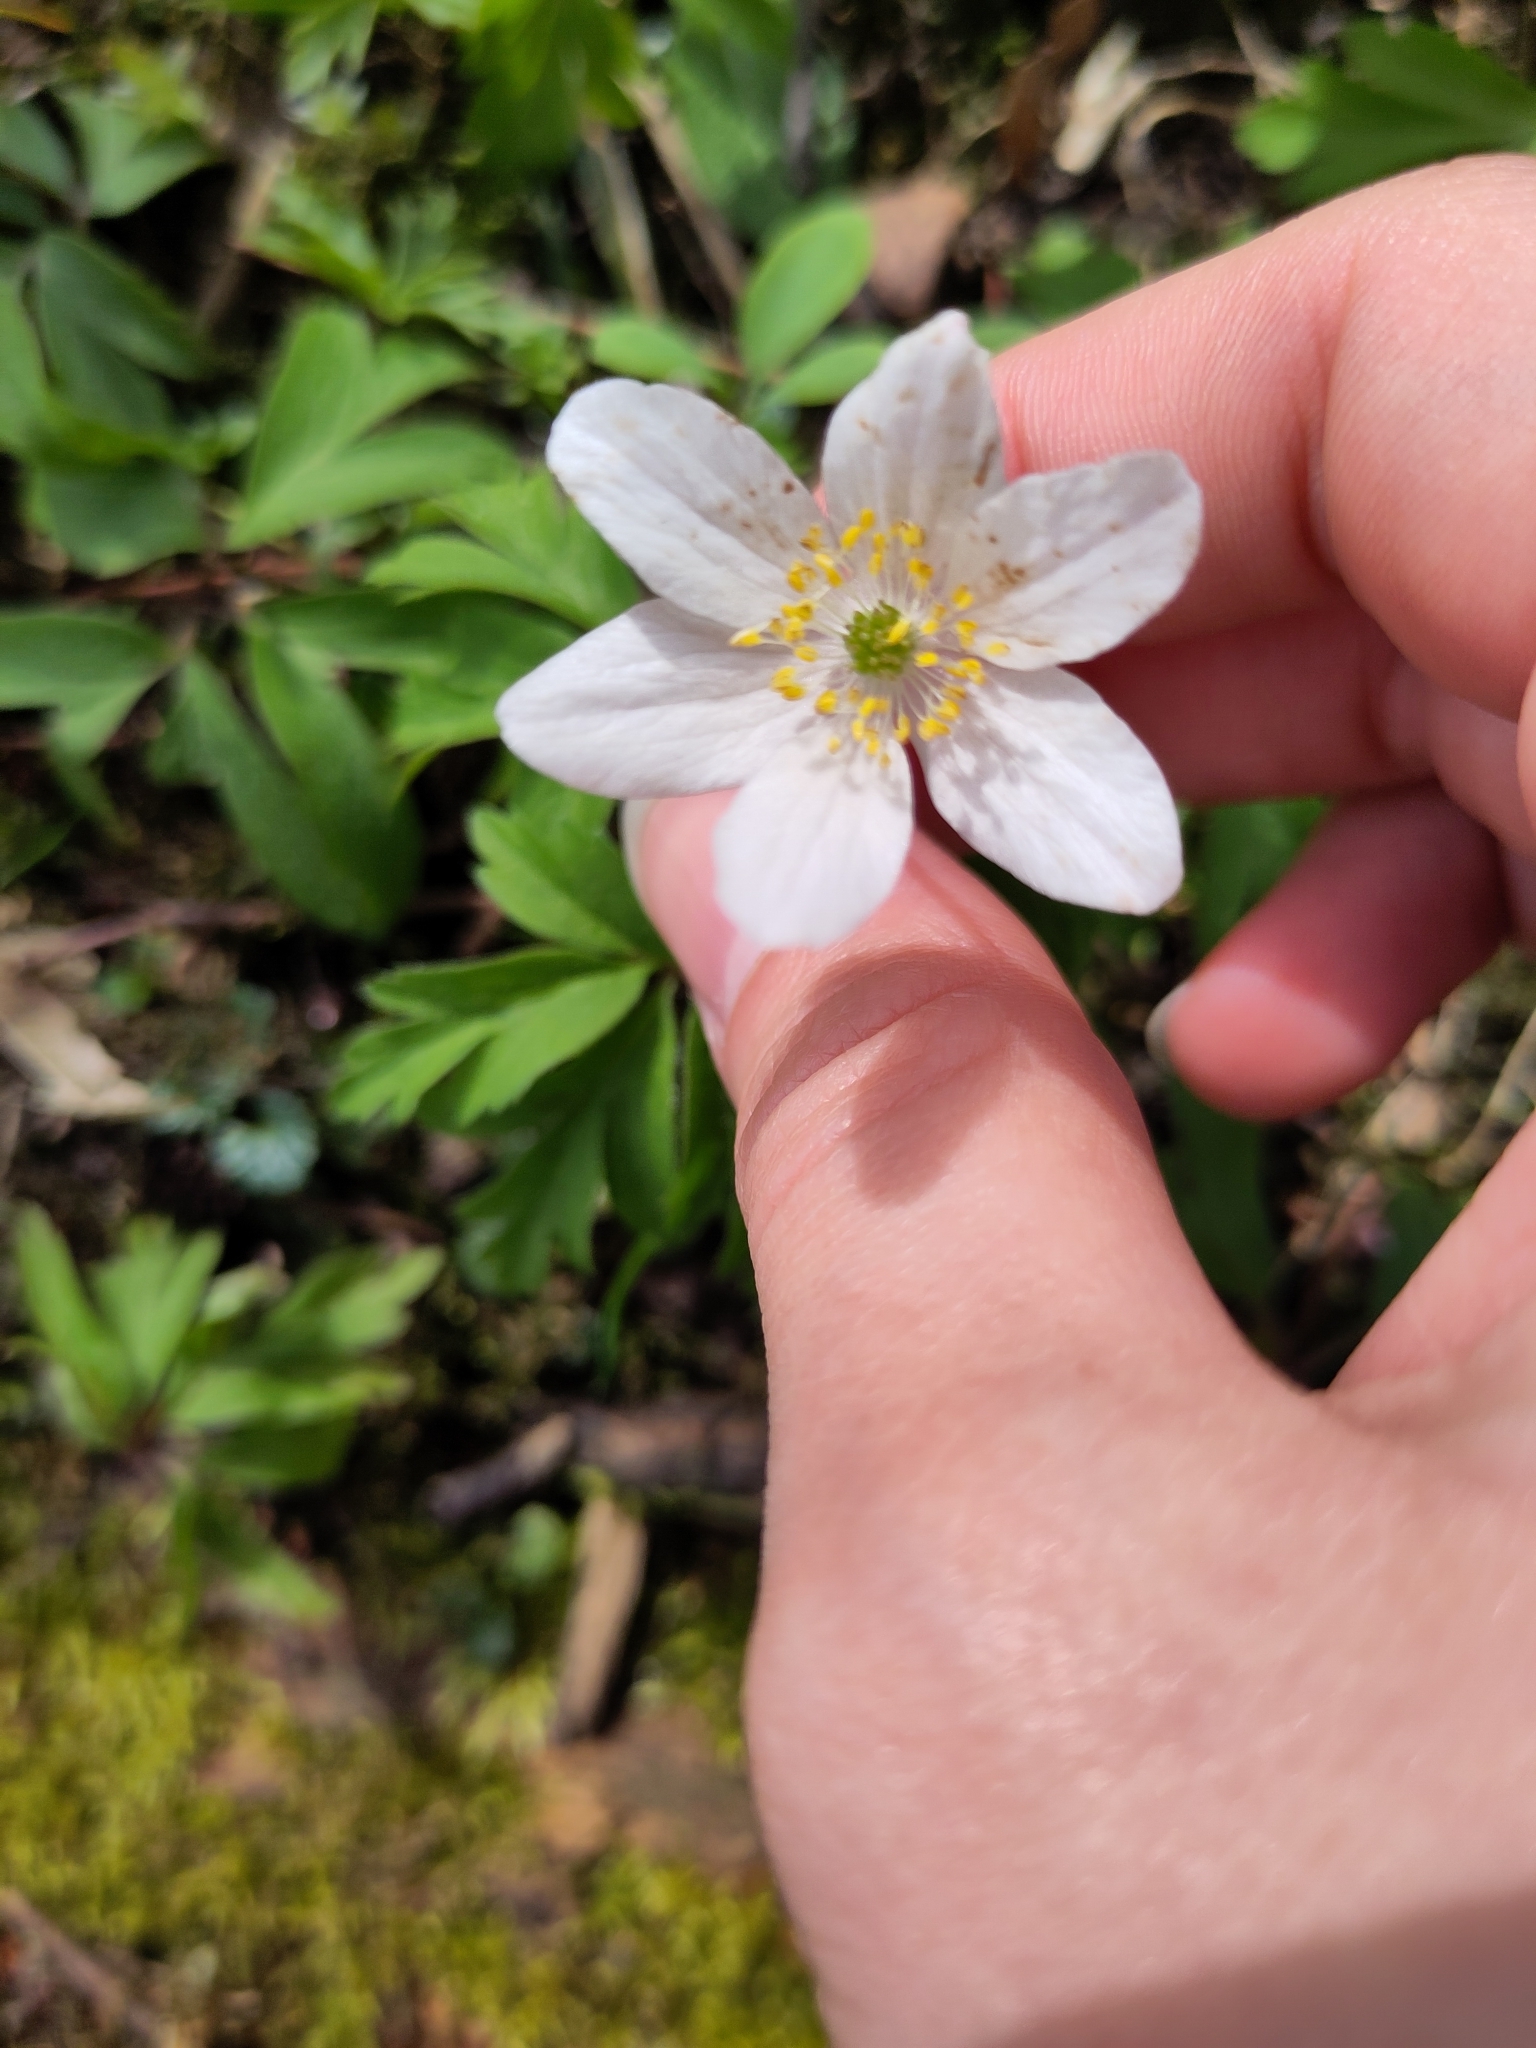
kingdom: Plantae
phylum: Tracheophyta
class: Magnoliopsida
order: Ranunculales
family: Ranunculaceae
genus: Anemone
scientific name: Anemone nemorosa
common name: Wood anemone
